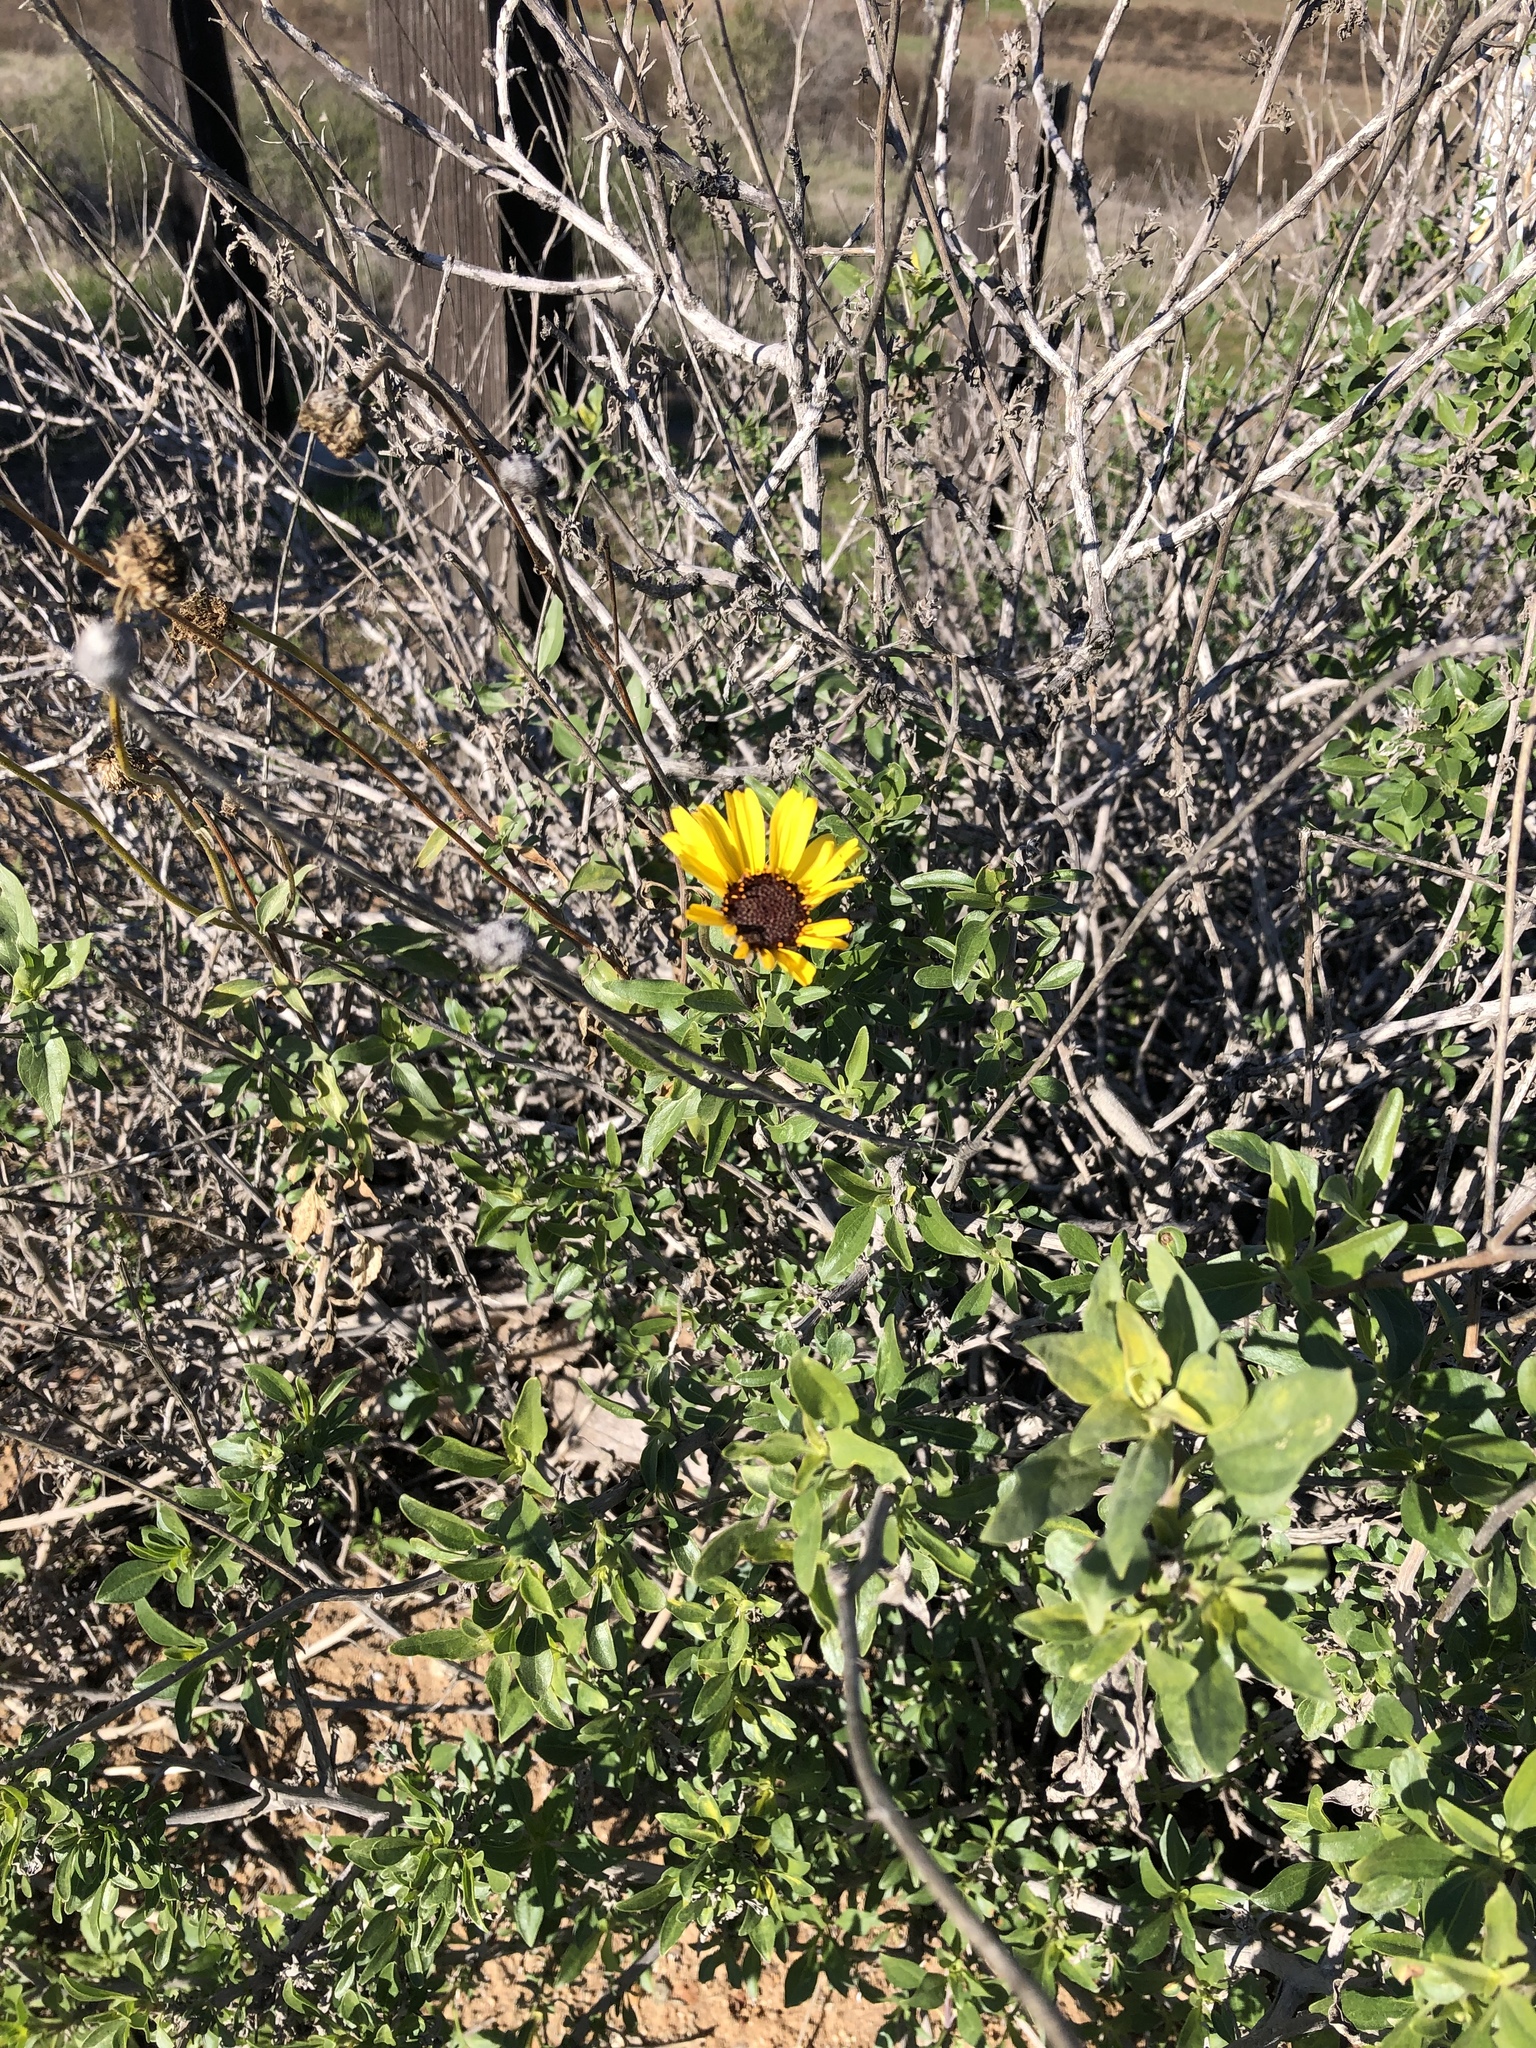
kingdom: Plantae
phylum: Tracheophyta
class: Magnoliopsida
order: Asterales
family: Asteraceae
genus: Encelia
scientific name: Encelia californica
